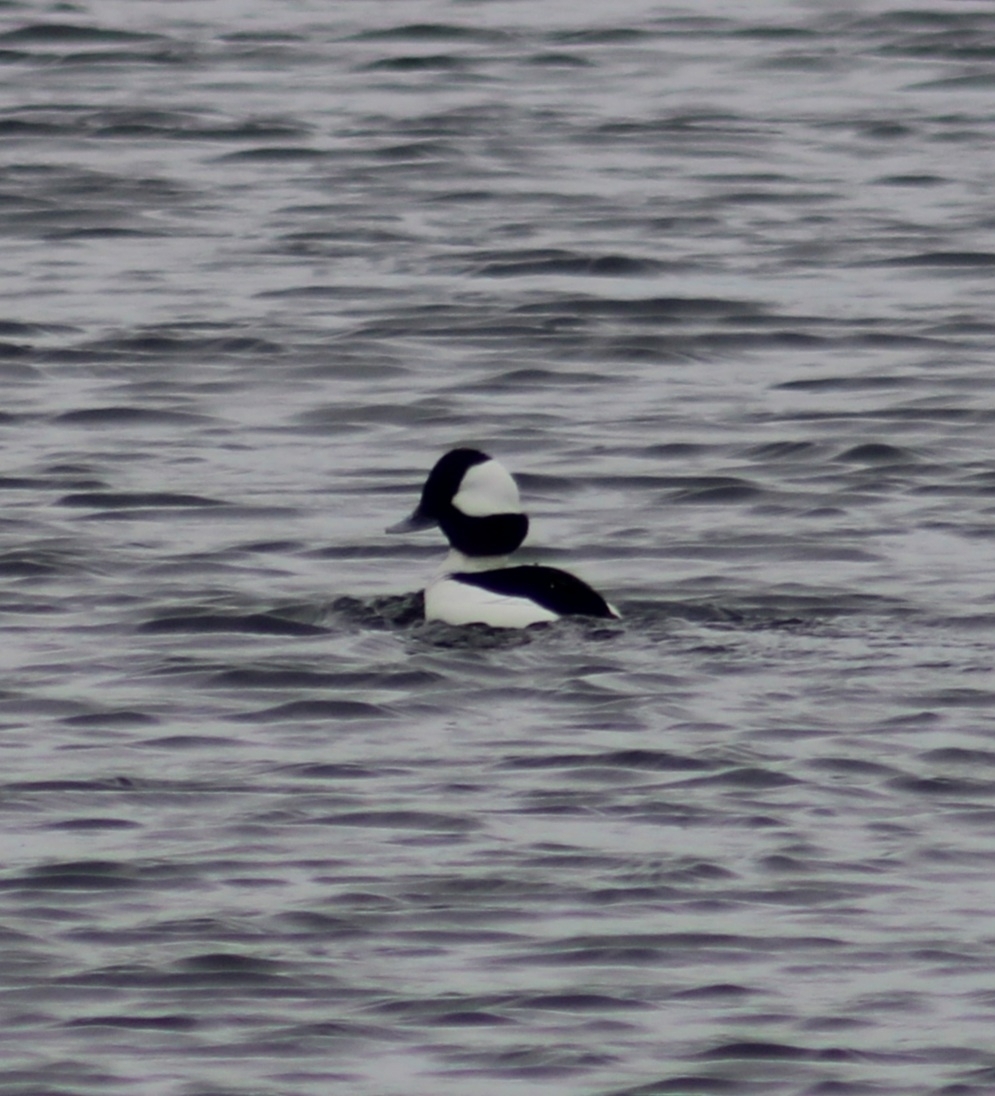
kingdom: Animalia
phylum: Chordata
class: Aves
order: Anseriformes
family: Anatidae
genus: Bucephala
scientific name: Bucephala albeola
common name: Bufflehead
